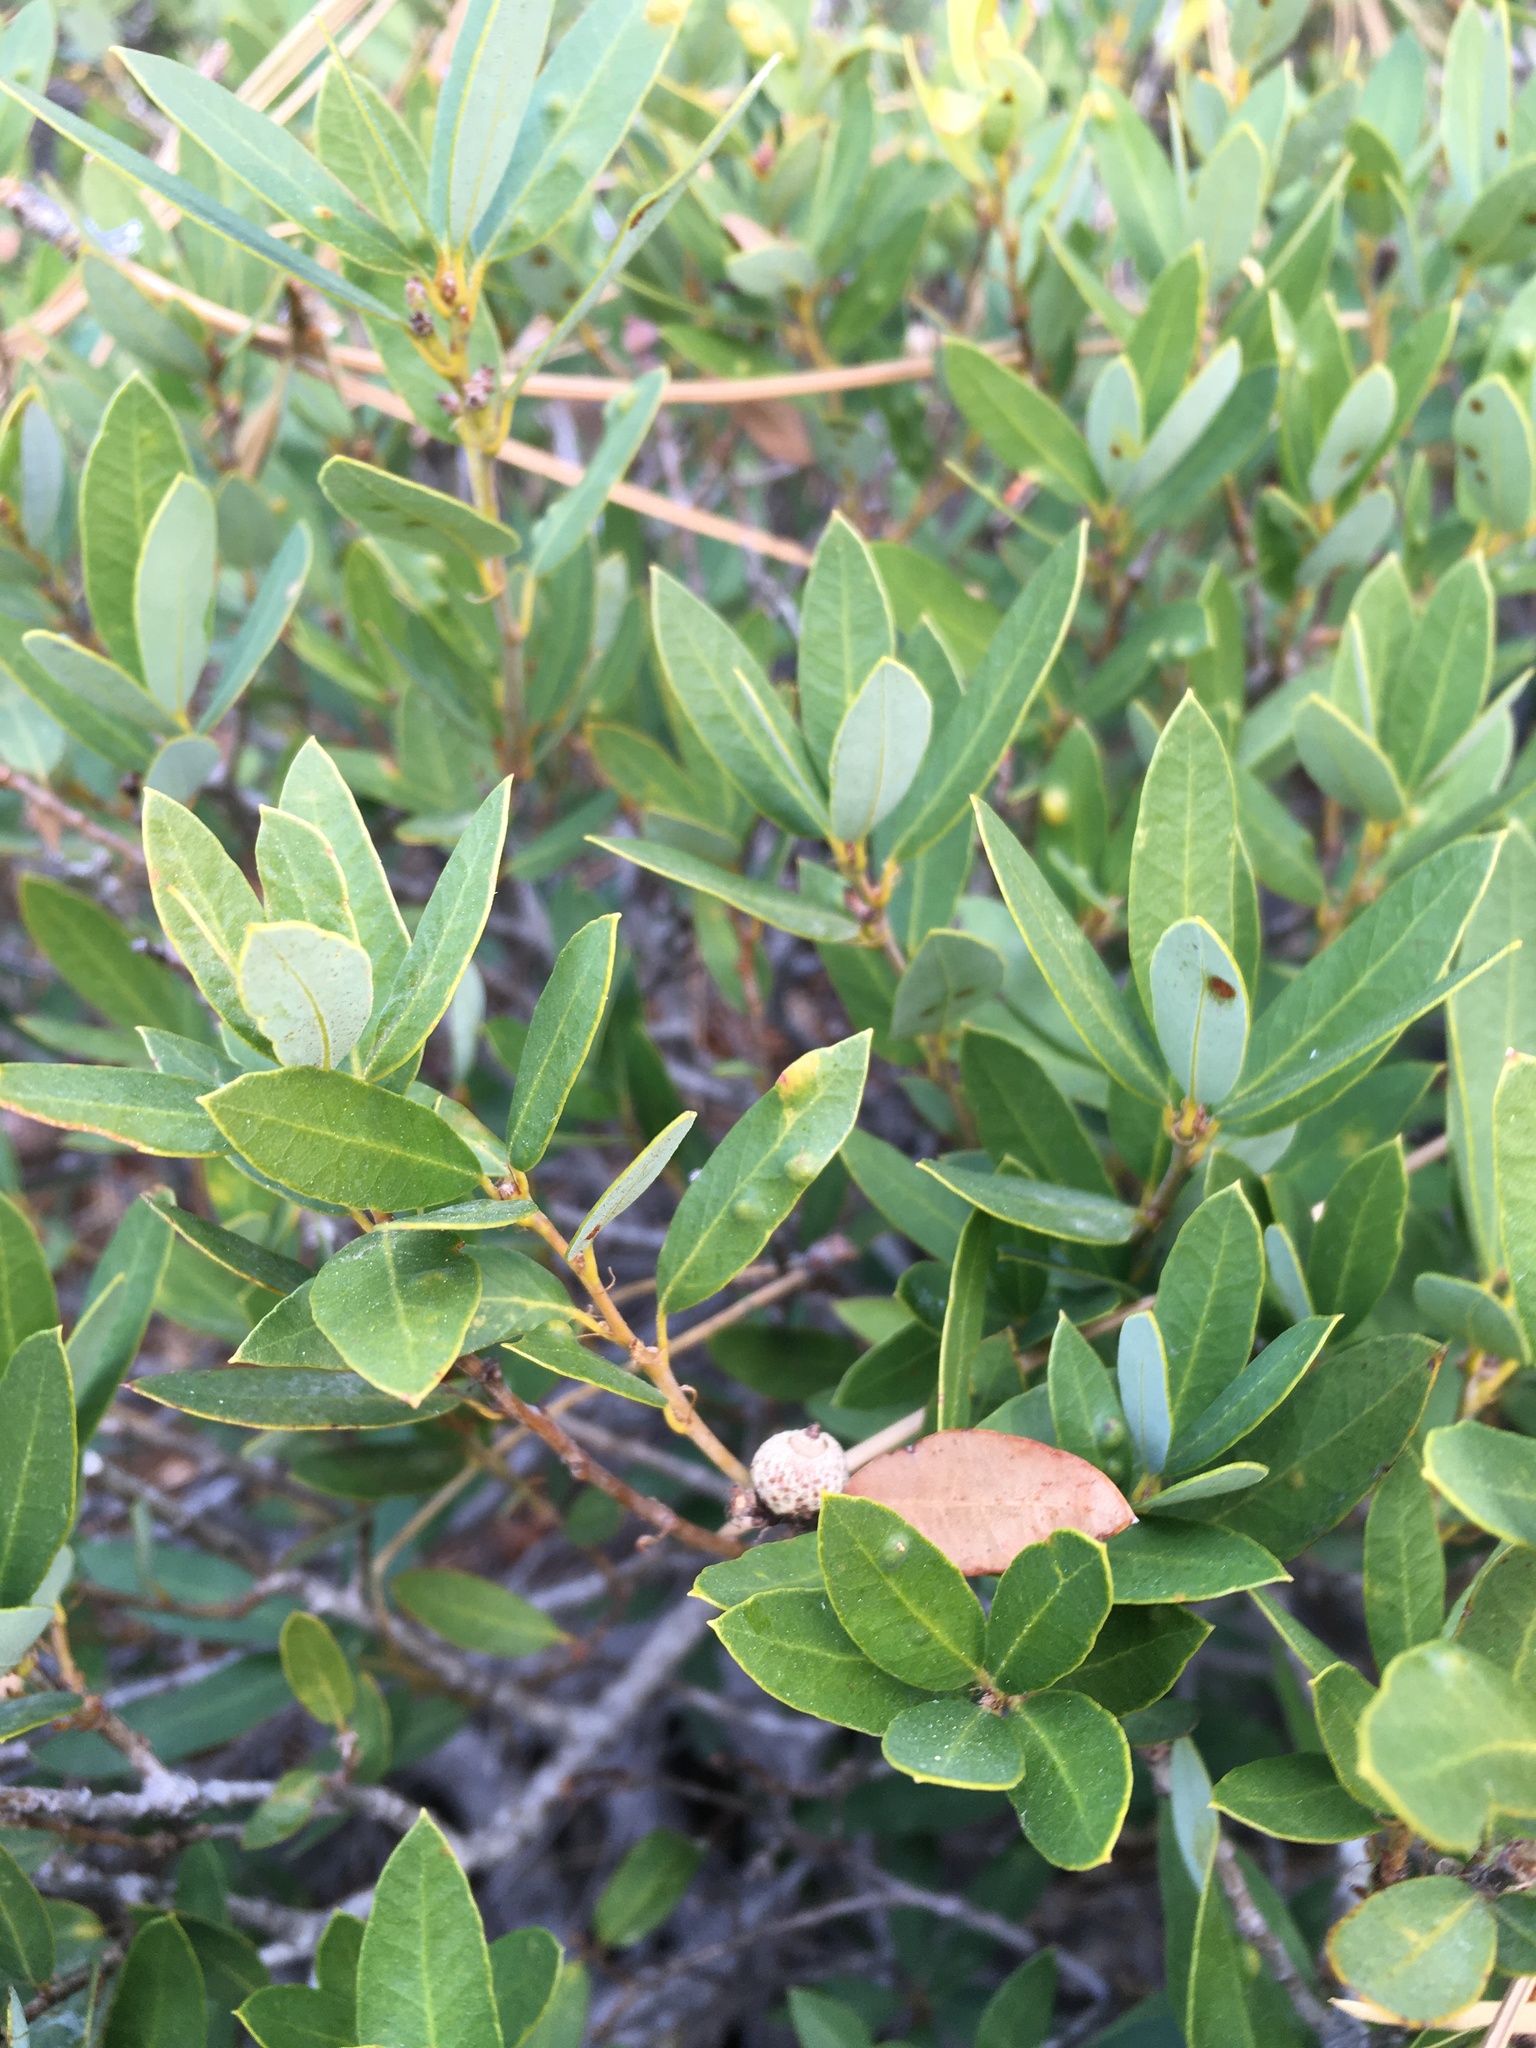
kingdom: Plantae
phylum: Tracheophyta
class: Magnoliopsida
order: Fagales
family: Fagaceae
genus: Quercus
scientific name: Quercus vacciniifolia
